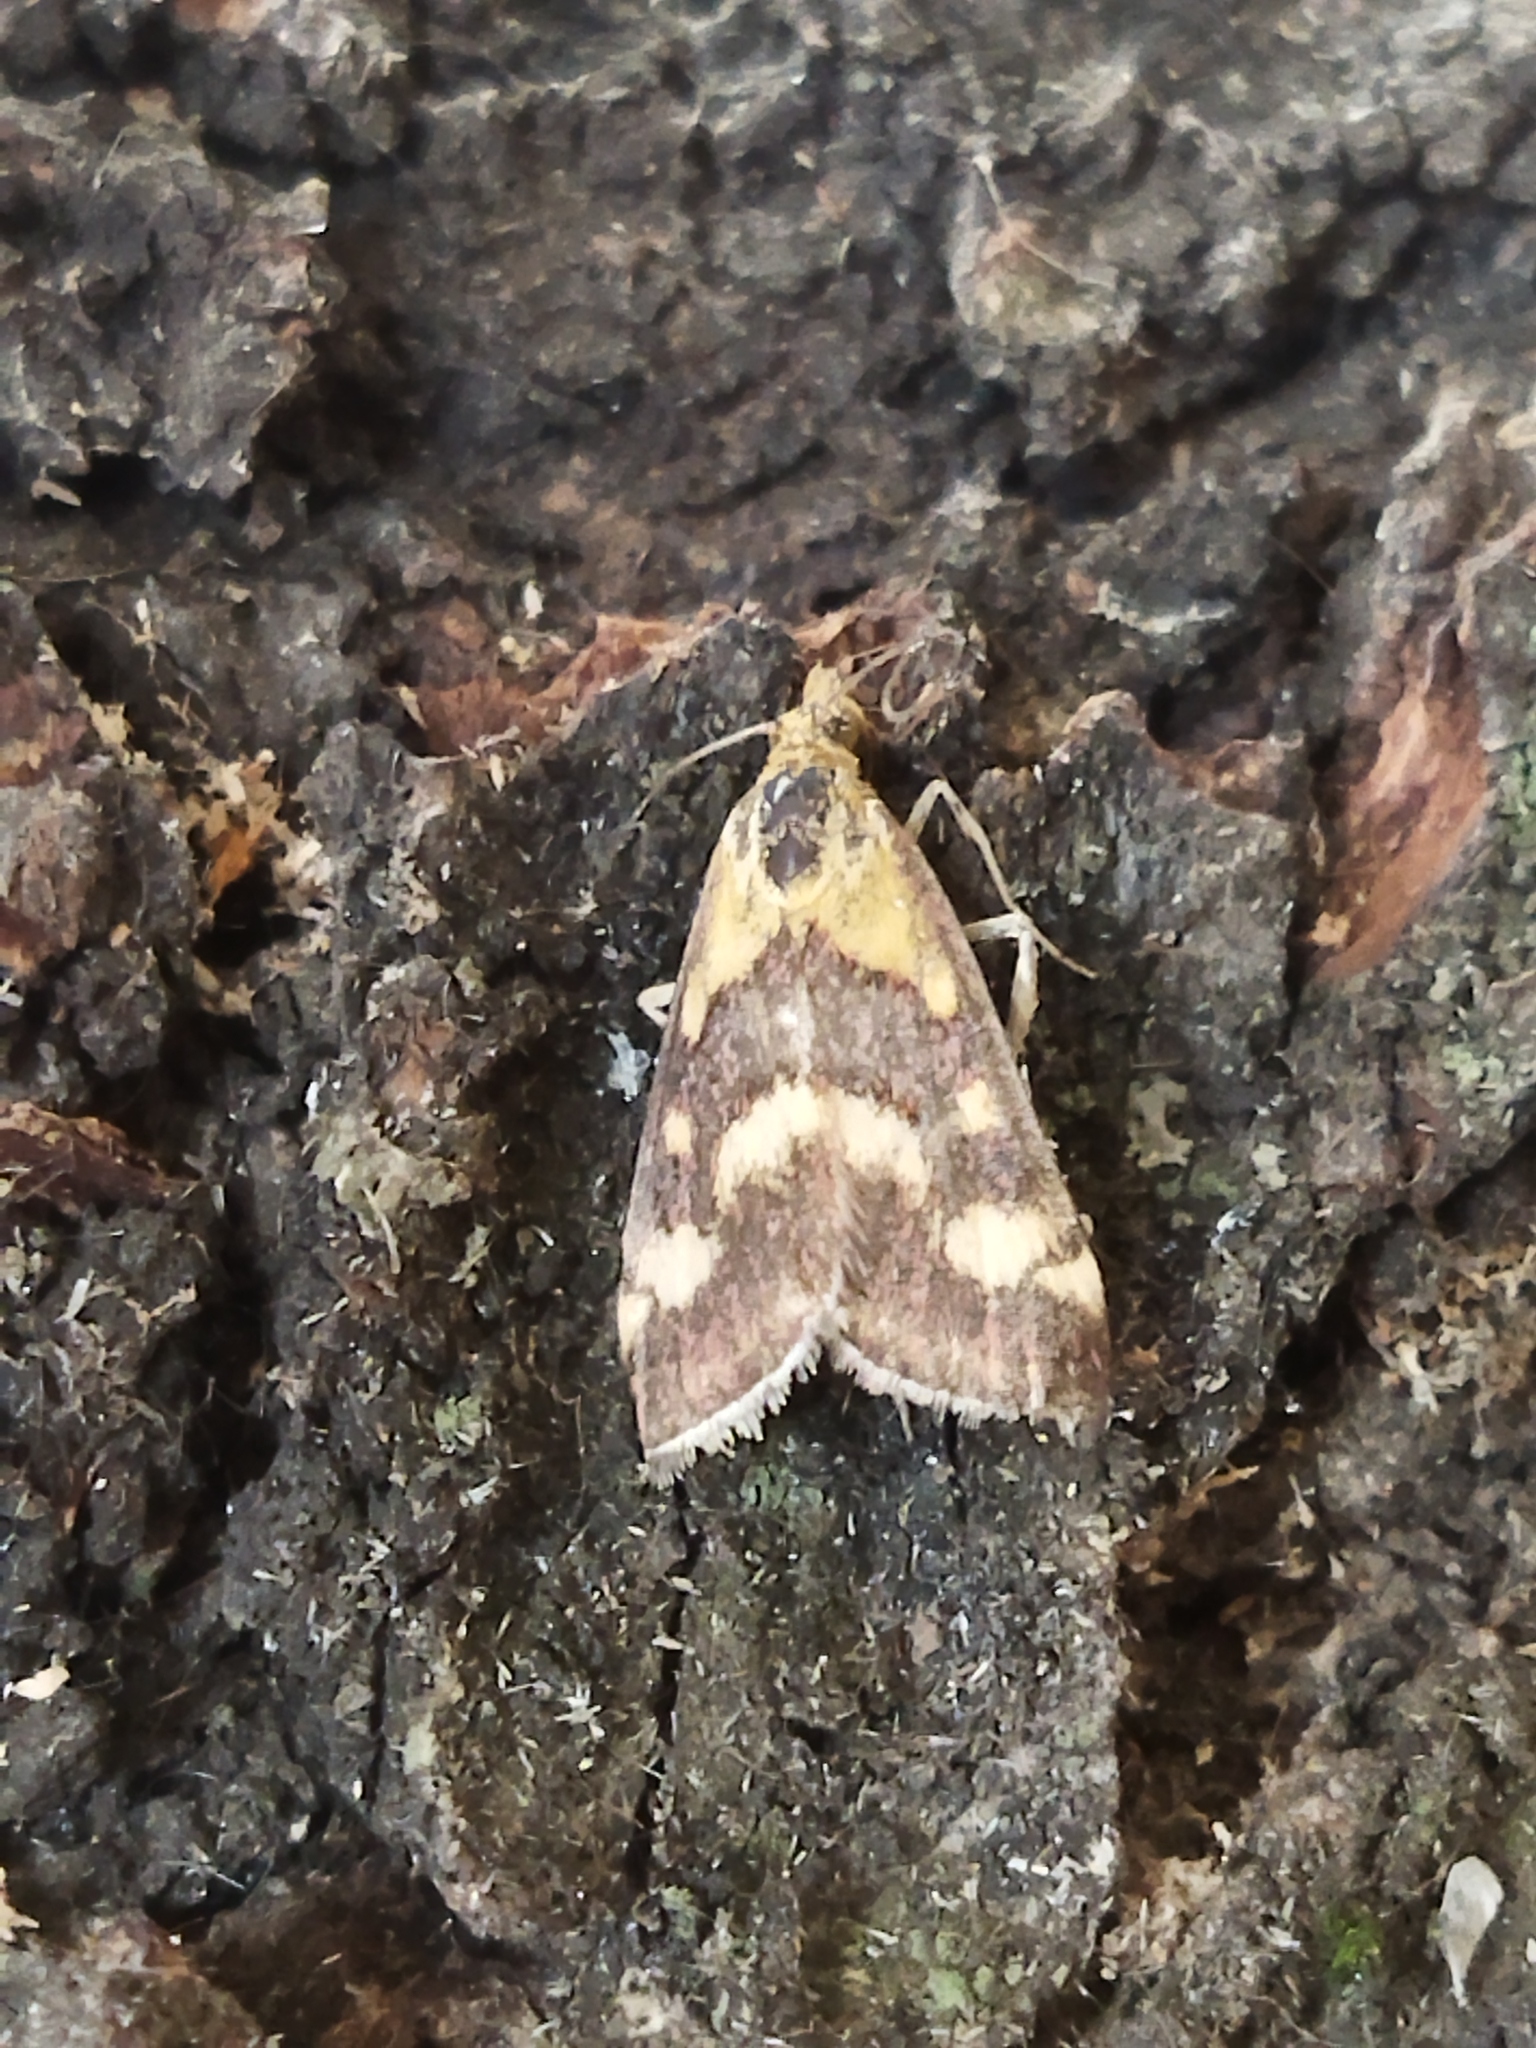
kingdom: Animalia
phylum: Arthropoda
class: Insecta
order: Lepidoptera
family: Crambidae
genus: Pyrausta
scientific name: Pyrausta purpuralis
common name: Common purple & gold
